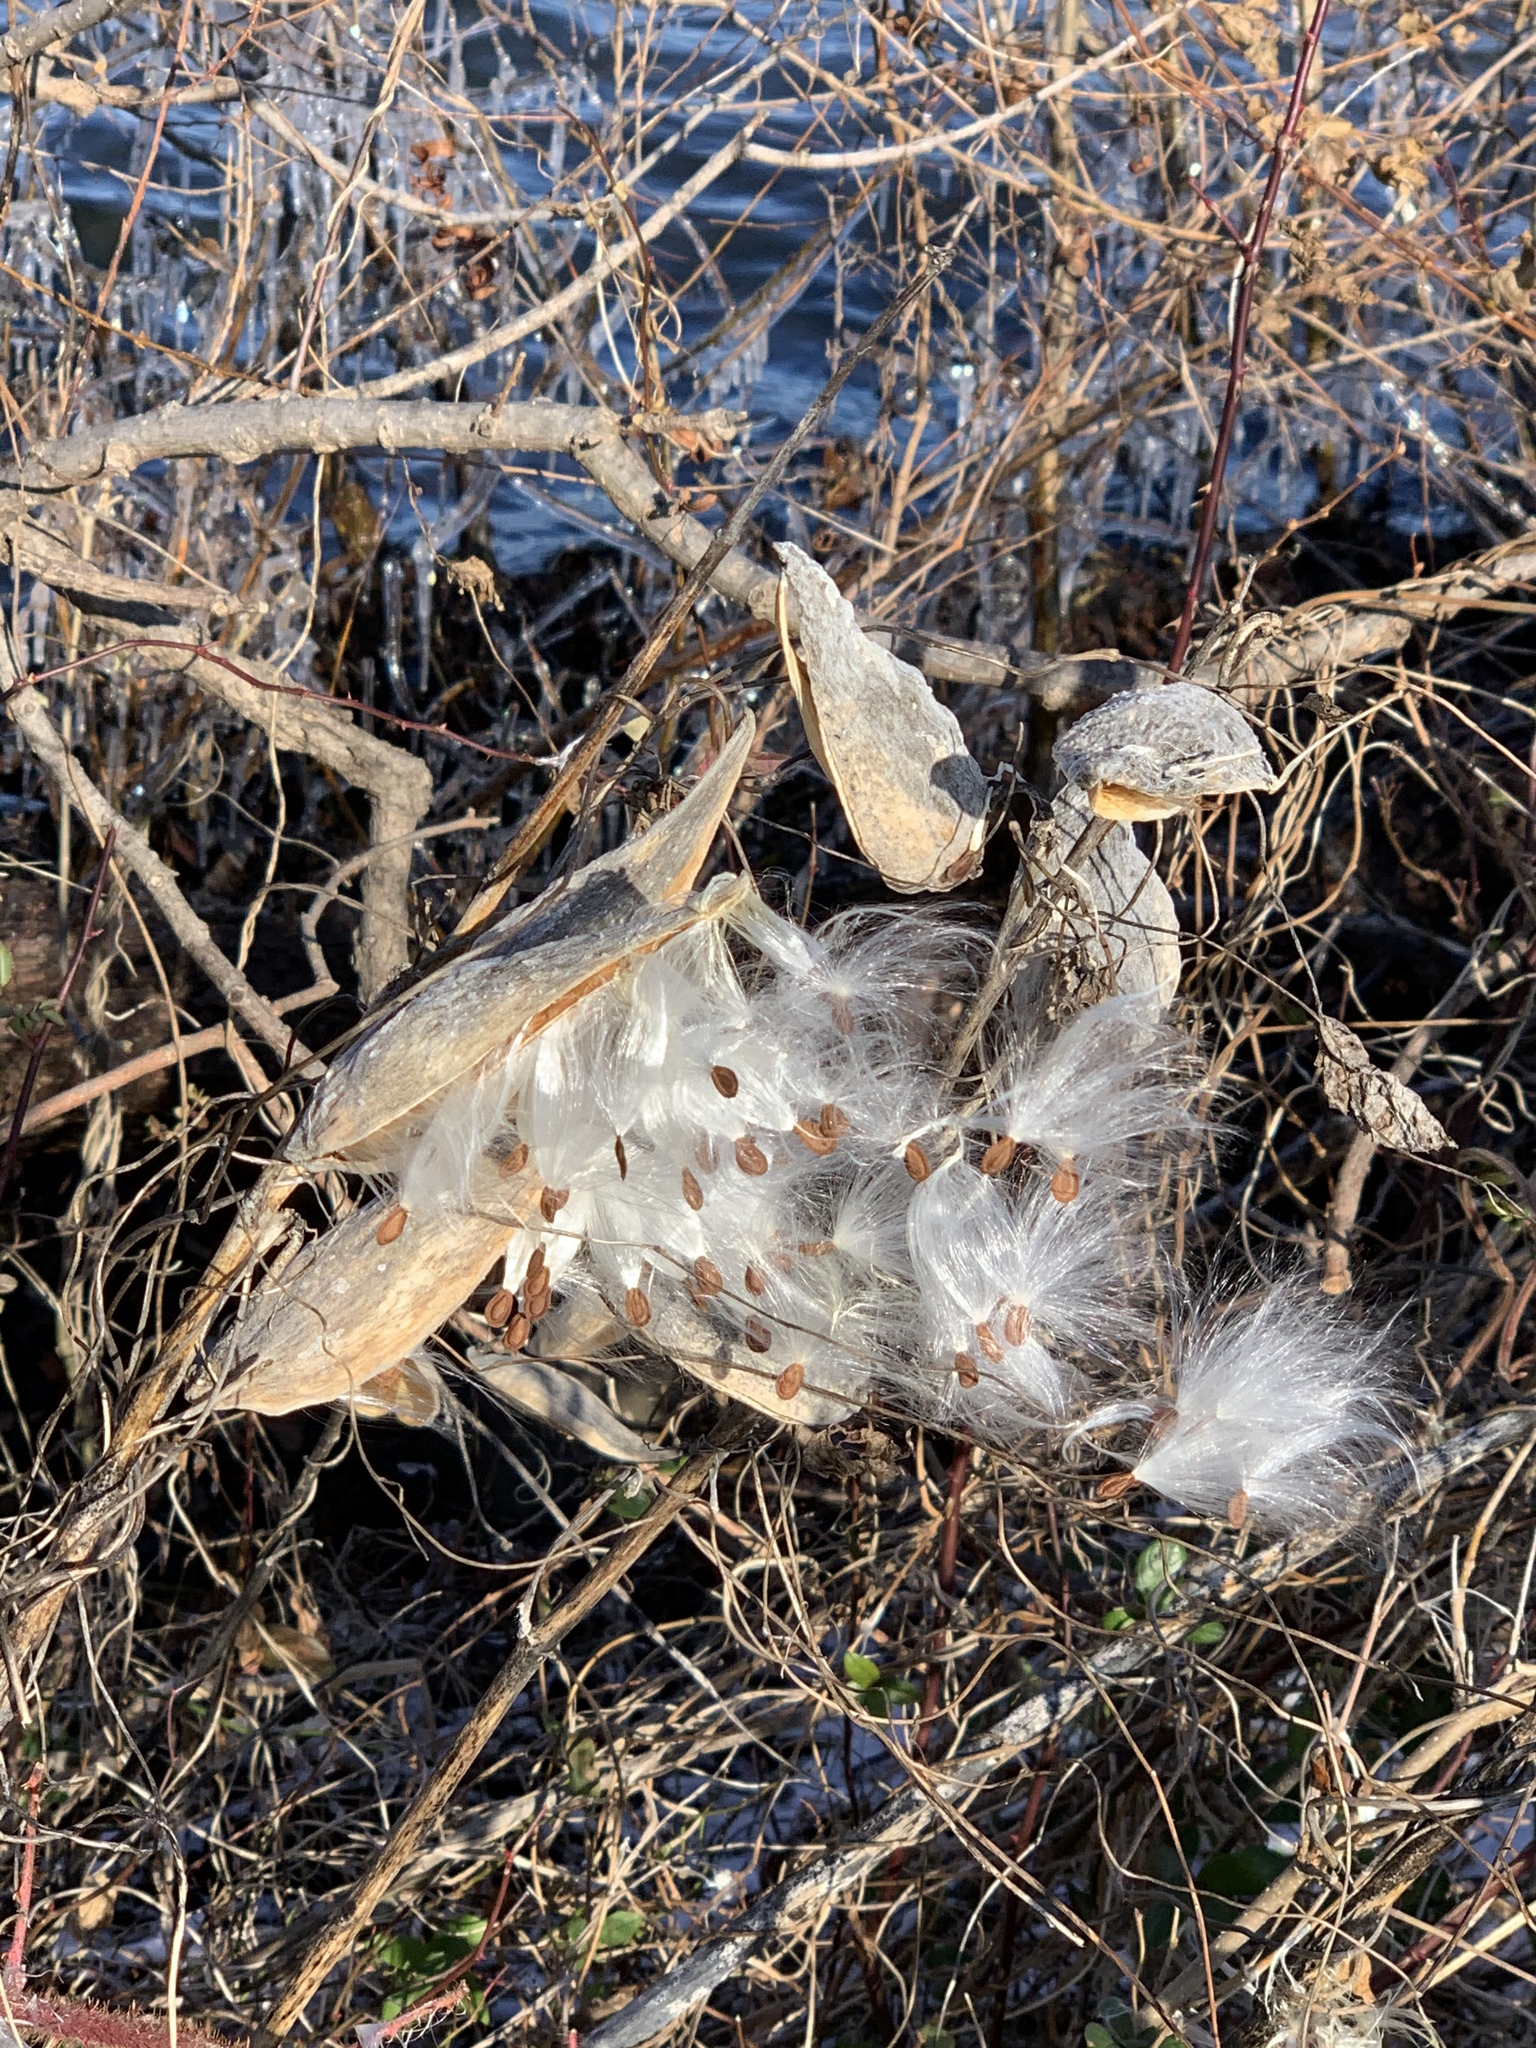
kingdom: Plantae
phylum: Tracheophyta
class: Magnoliopsida
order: Gentianales
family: Apocynaceae
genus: Asclepias
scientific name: Asclepias syriaca
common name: Common milkweed
